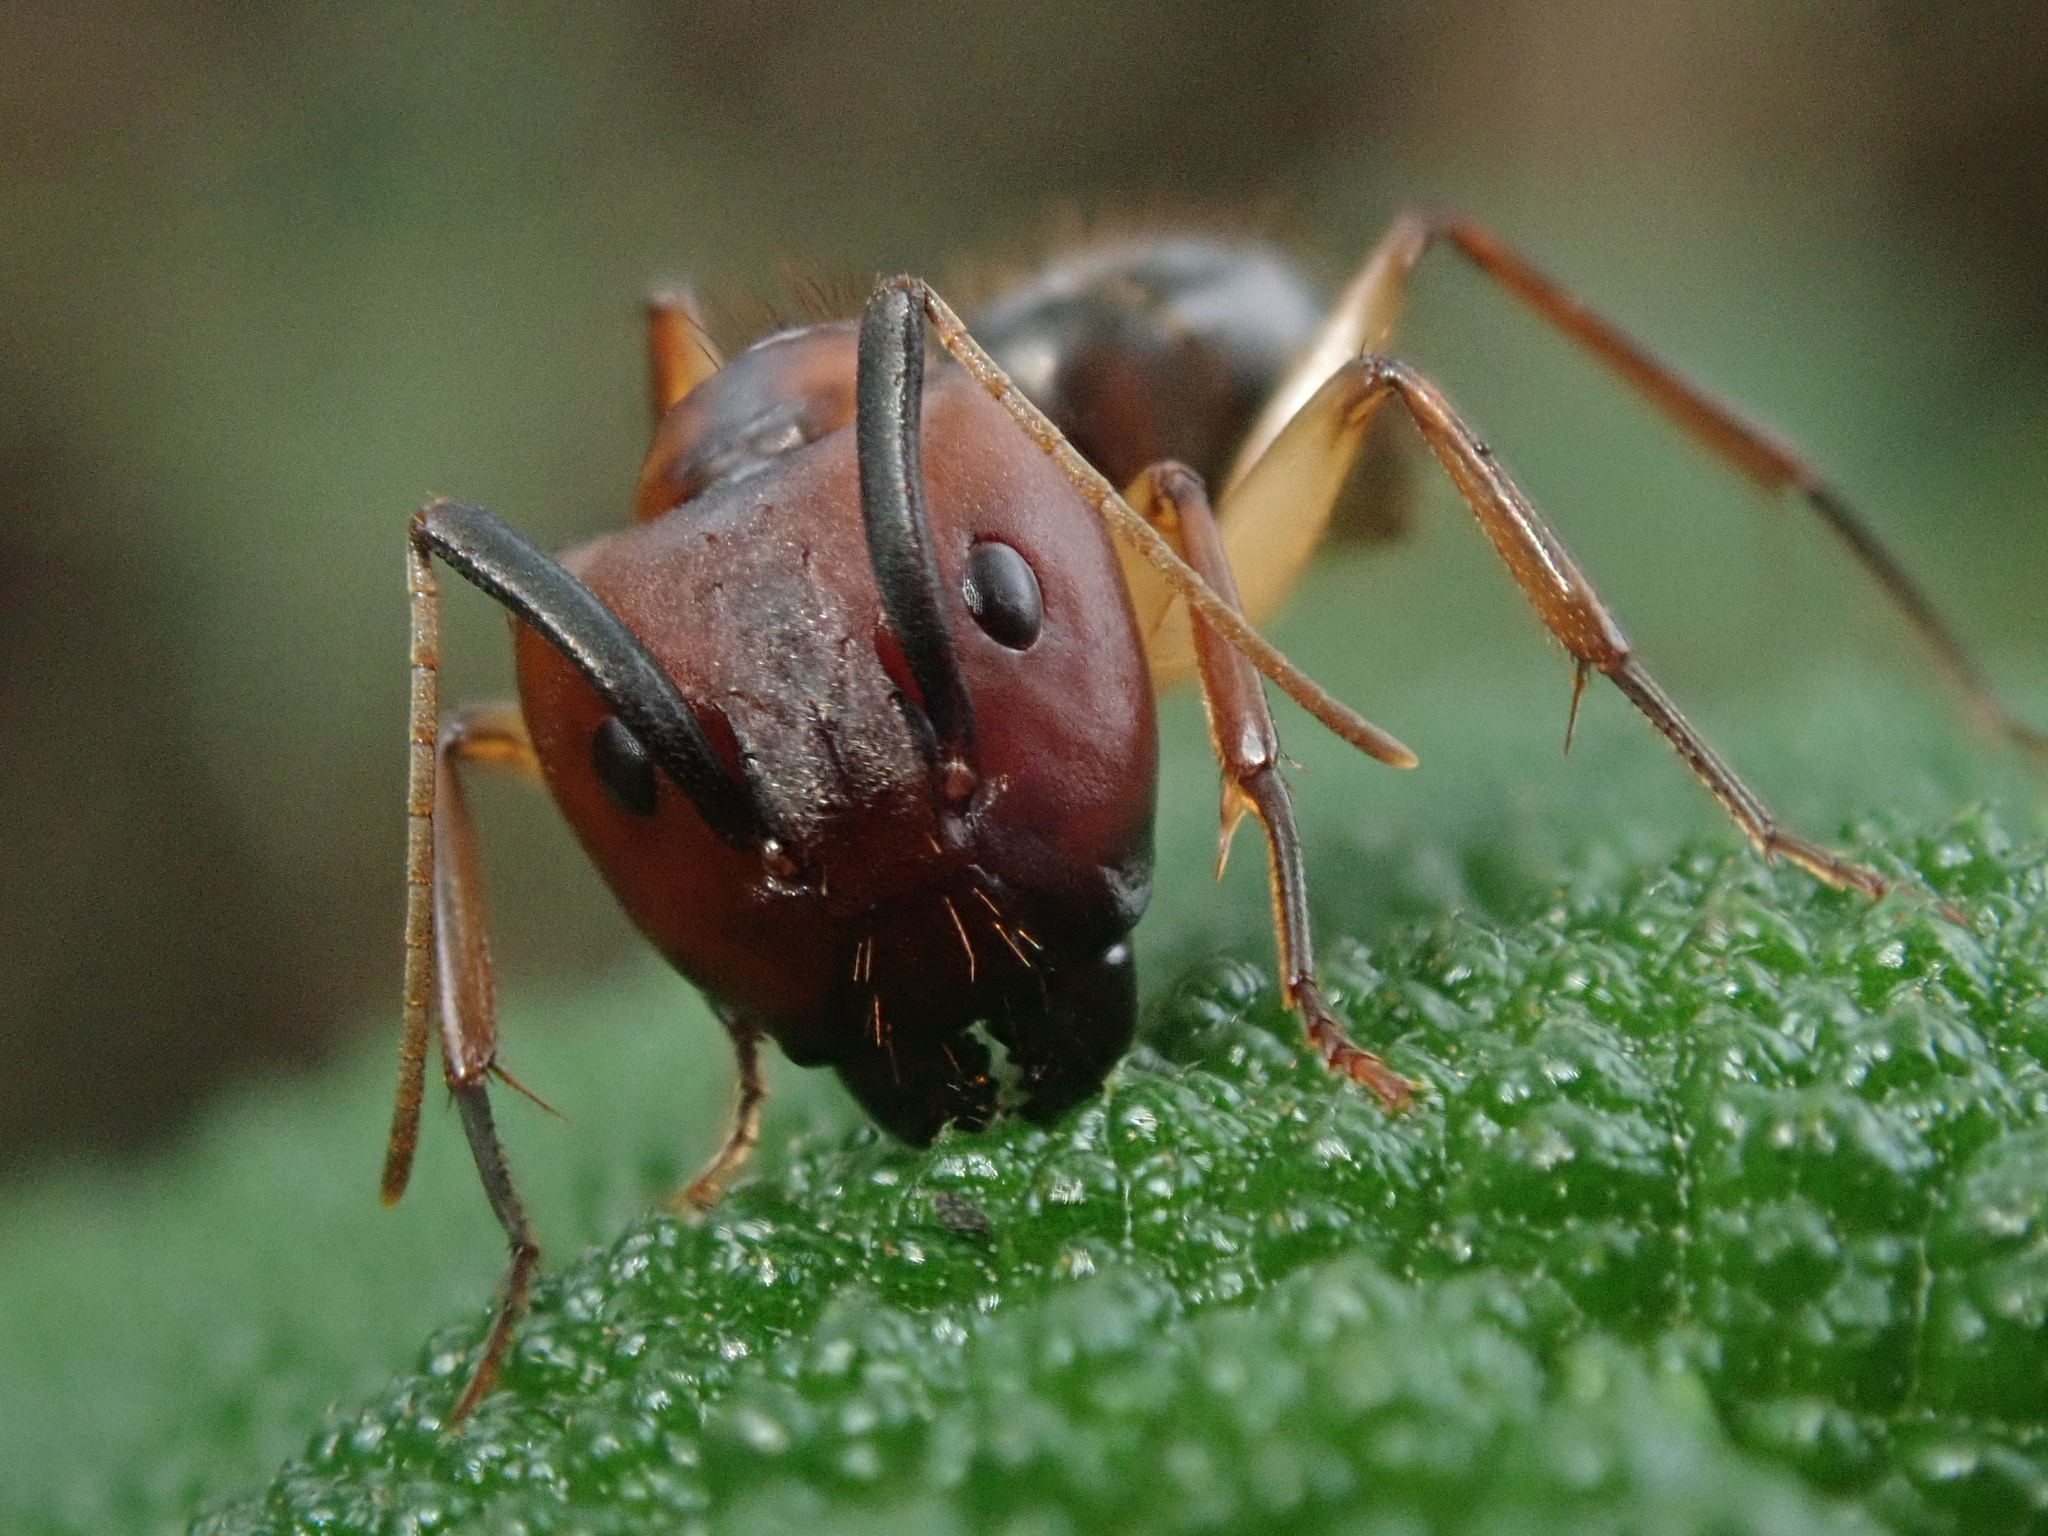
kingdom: Animalia
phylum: Arthropoda
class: Insecta
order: Hymenoptera
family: Formicidae
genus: Camponotus
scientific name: Camponotus borellii
